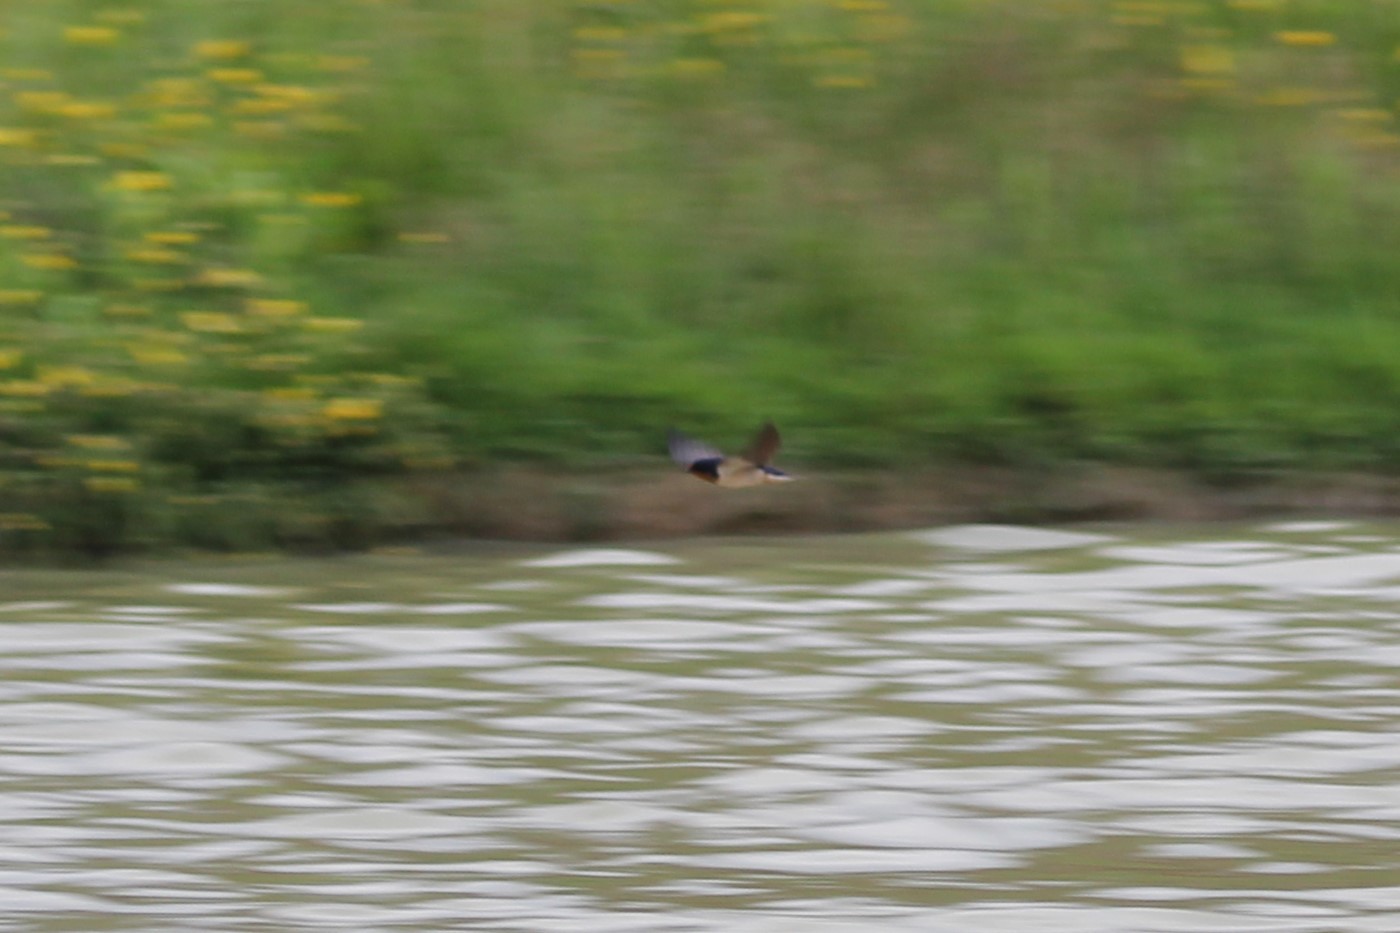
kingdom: Animalia
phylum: Chordata
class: Aves
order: Passeriformes
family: Hirundinidae
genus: Hirundo
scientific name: Hirundo rustica
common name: Barn swallow
